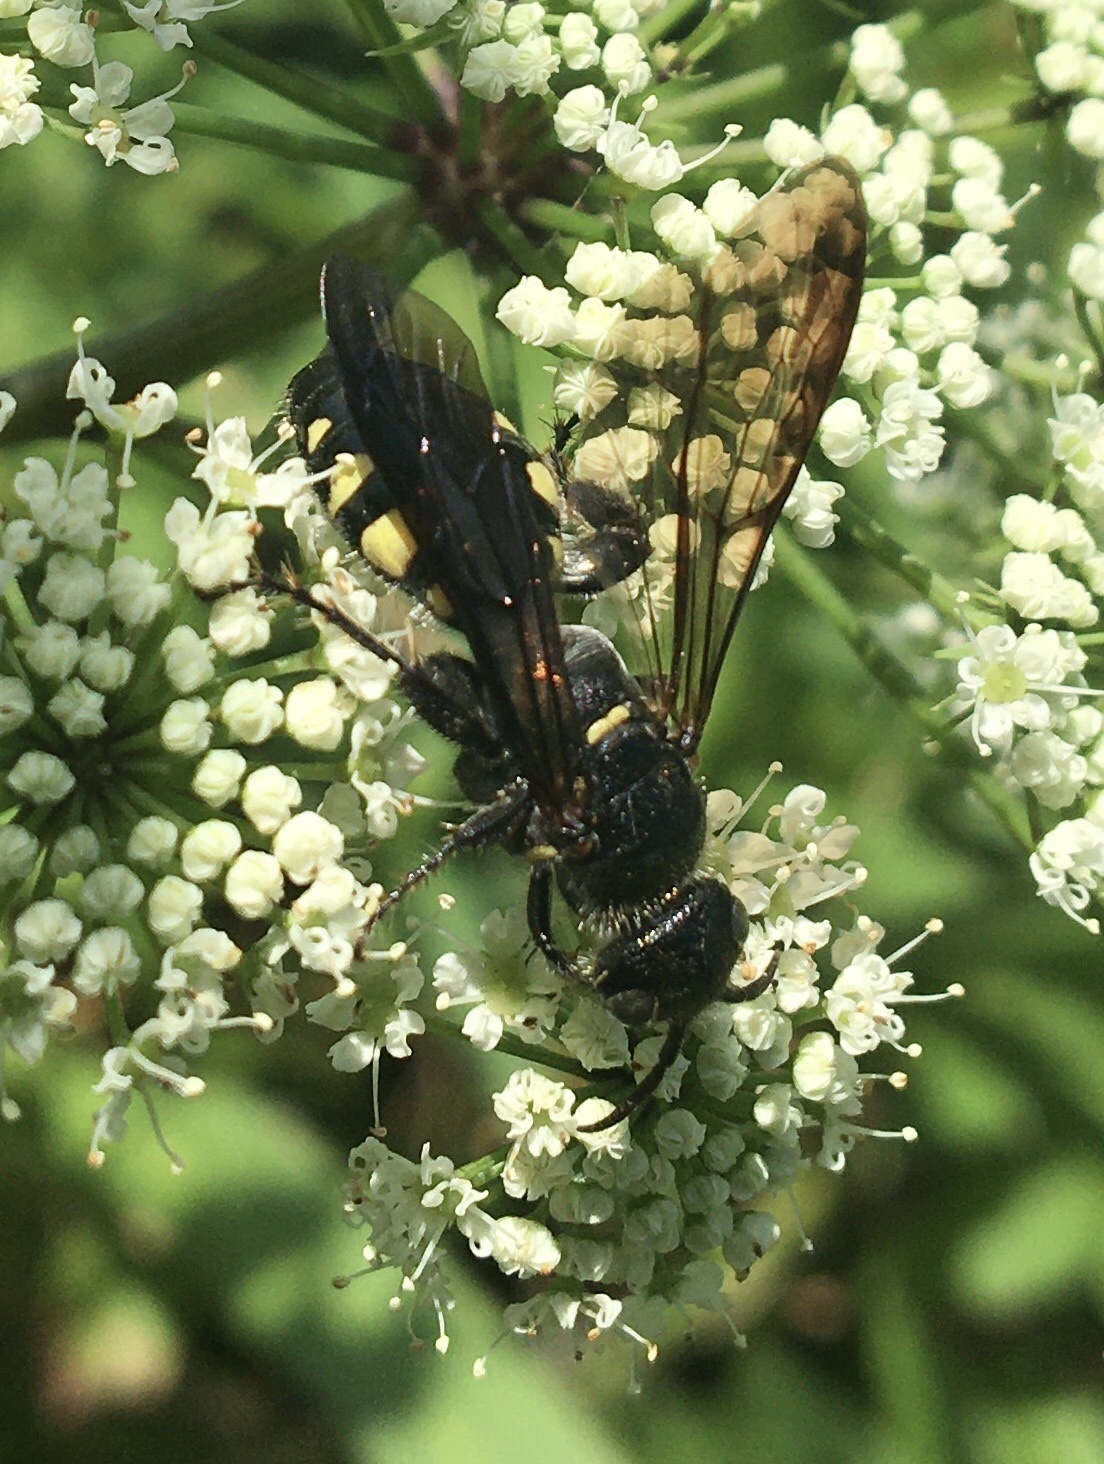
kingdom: Animalia
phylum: Arthropoda
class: Insecta
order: Hymenoptera
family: Tiphiidae
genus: Myzinum
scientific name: Myzinum obscurum
